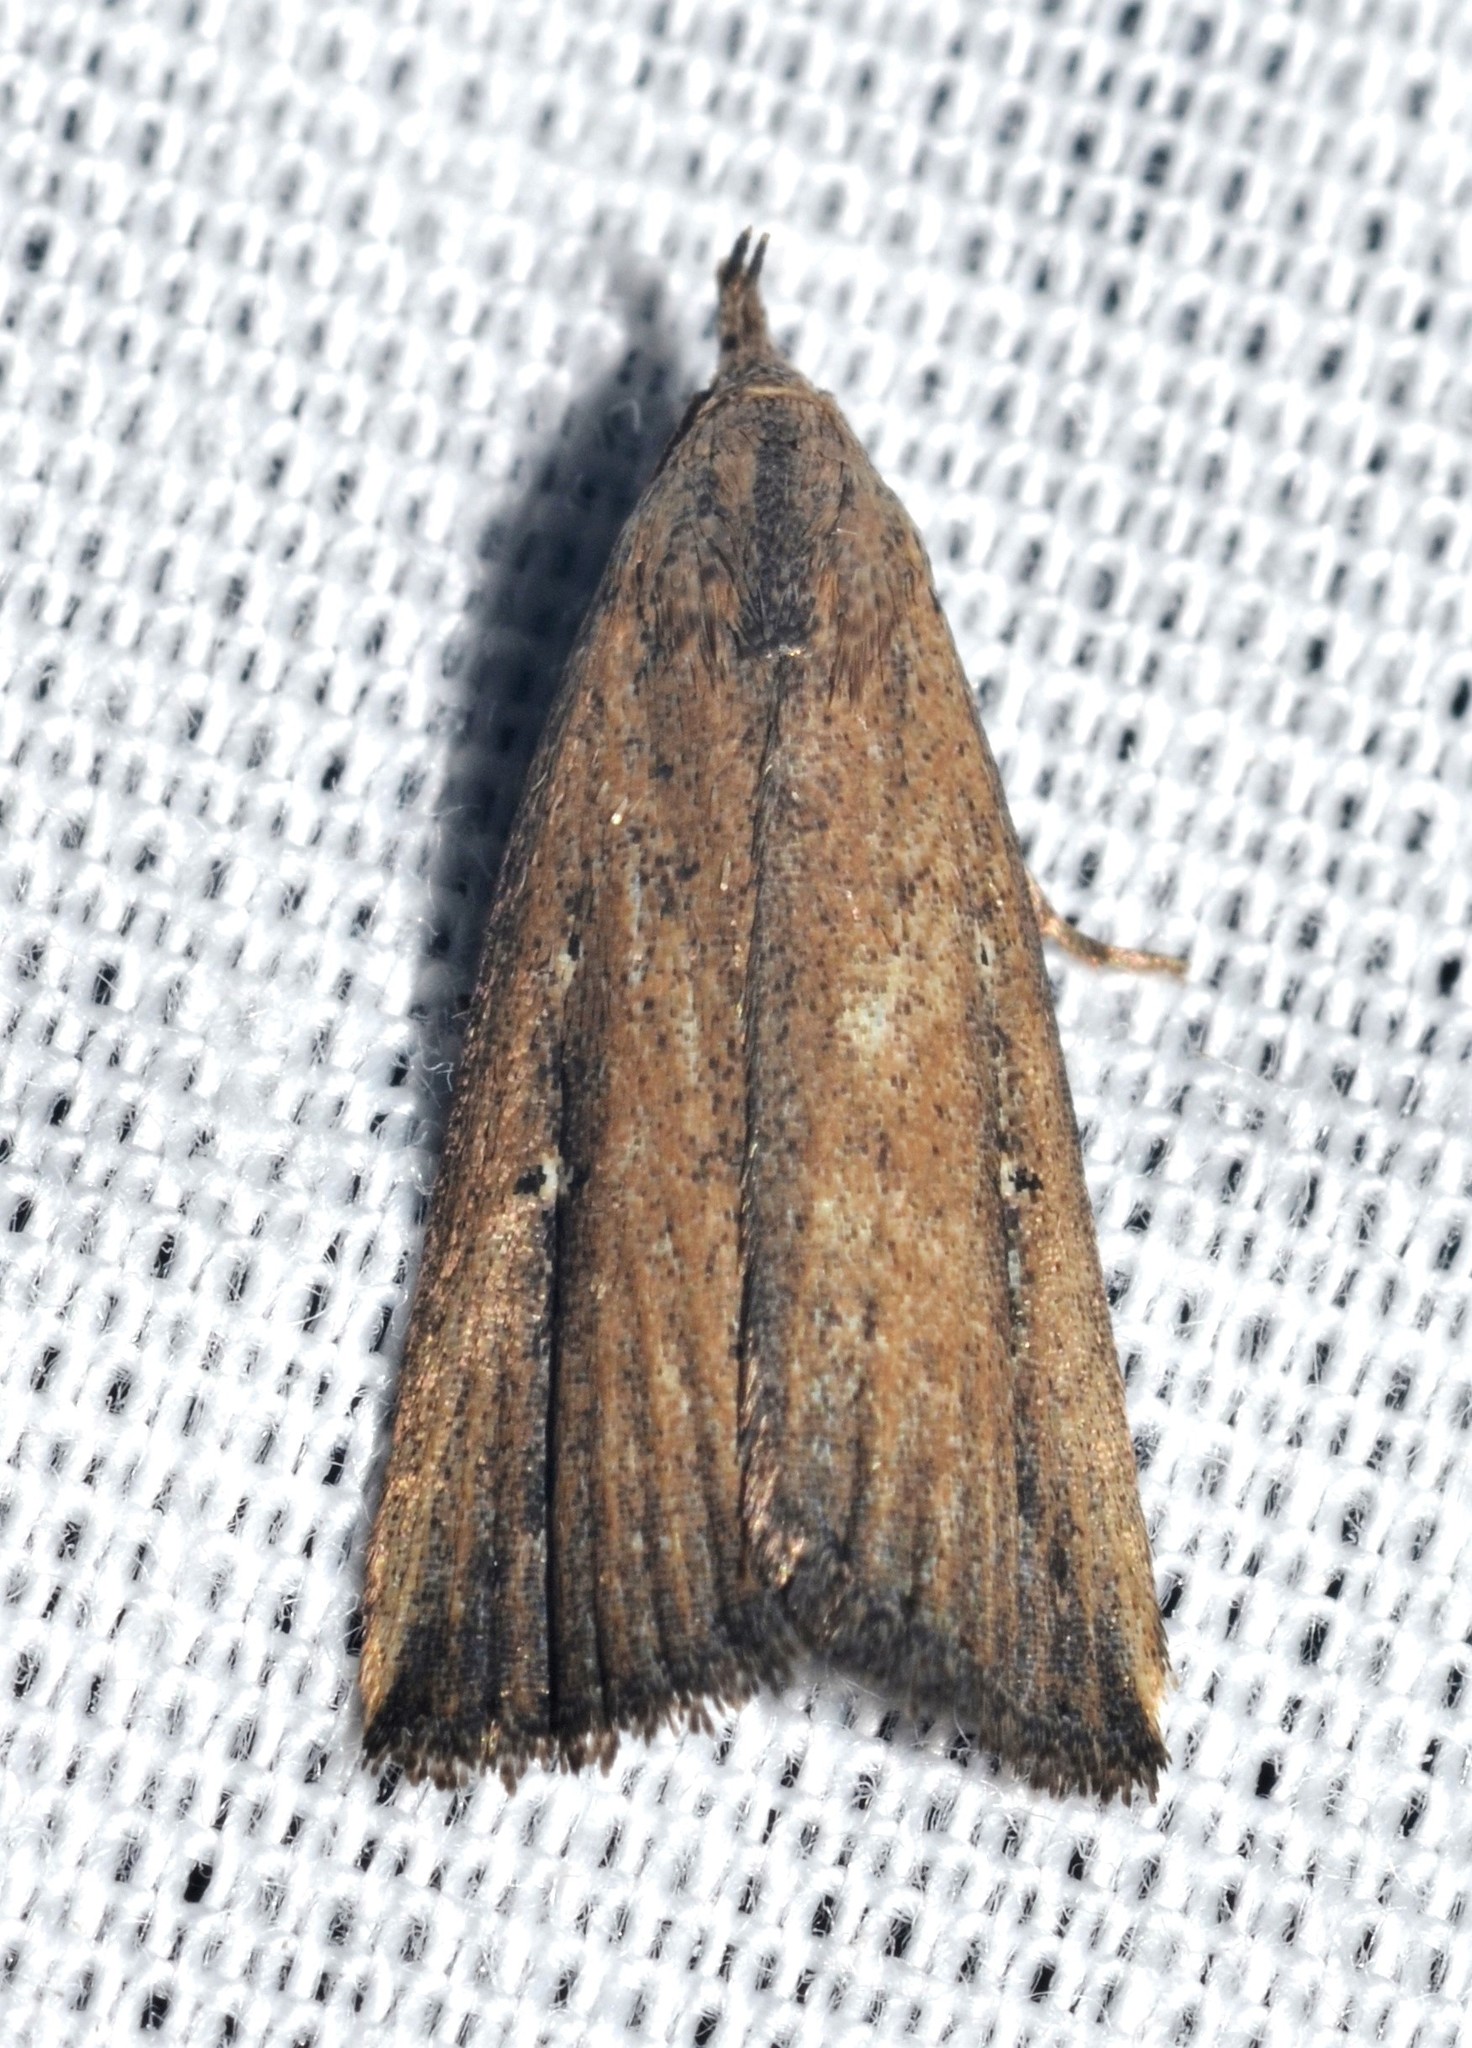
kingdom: Animalia
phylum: Arthropoda
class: Insecta
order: Lepidoptera
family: Erebidae
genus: Macrochilo
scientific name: Macrochilo orciferalis
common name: Bronzy owlet
